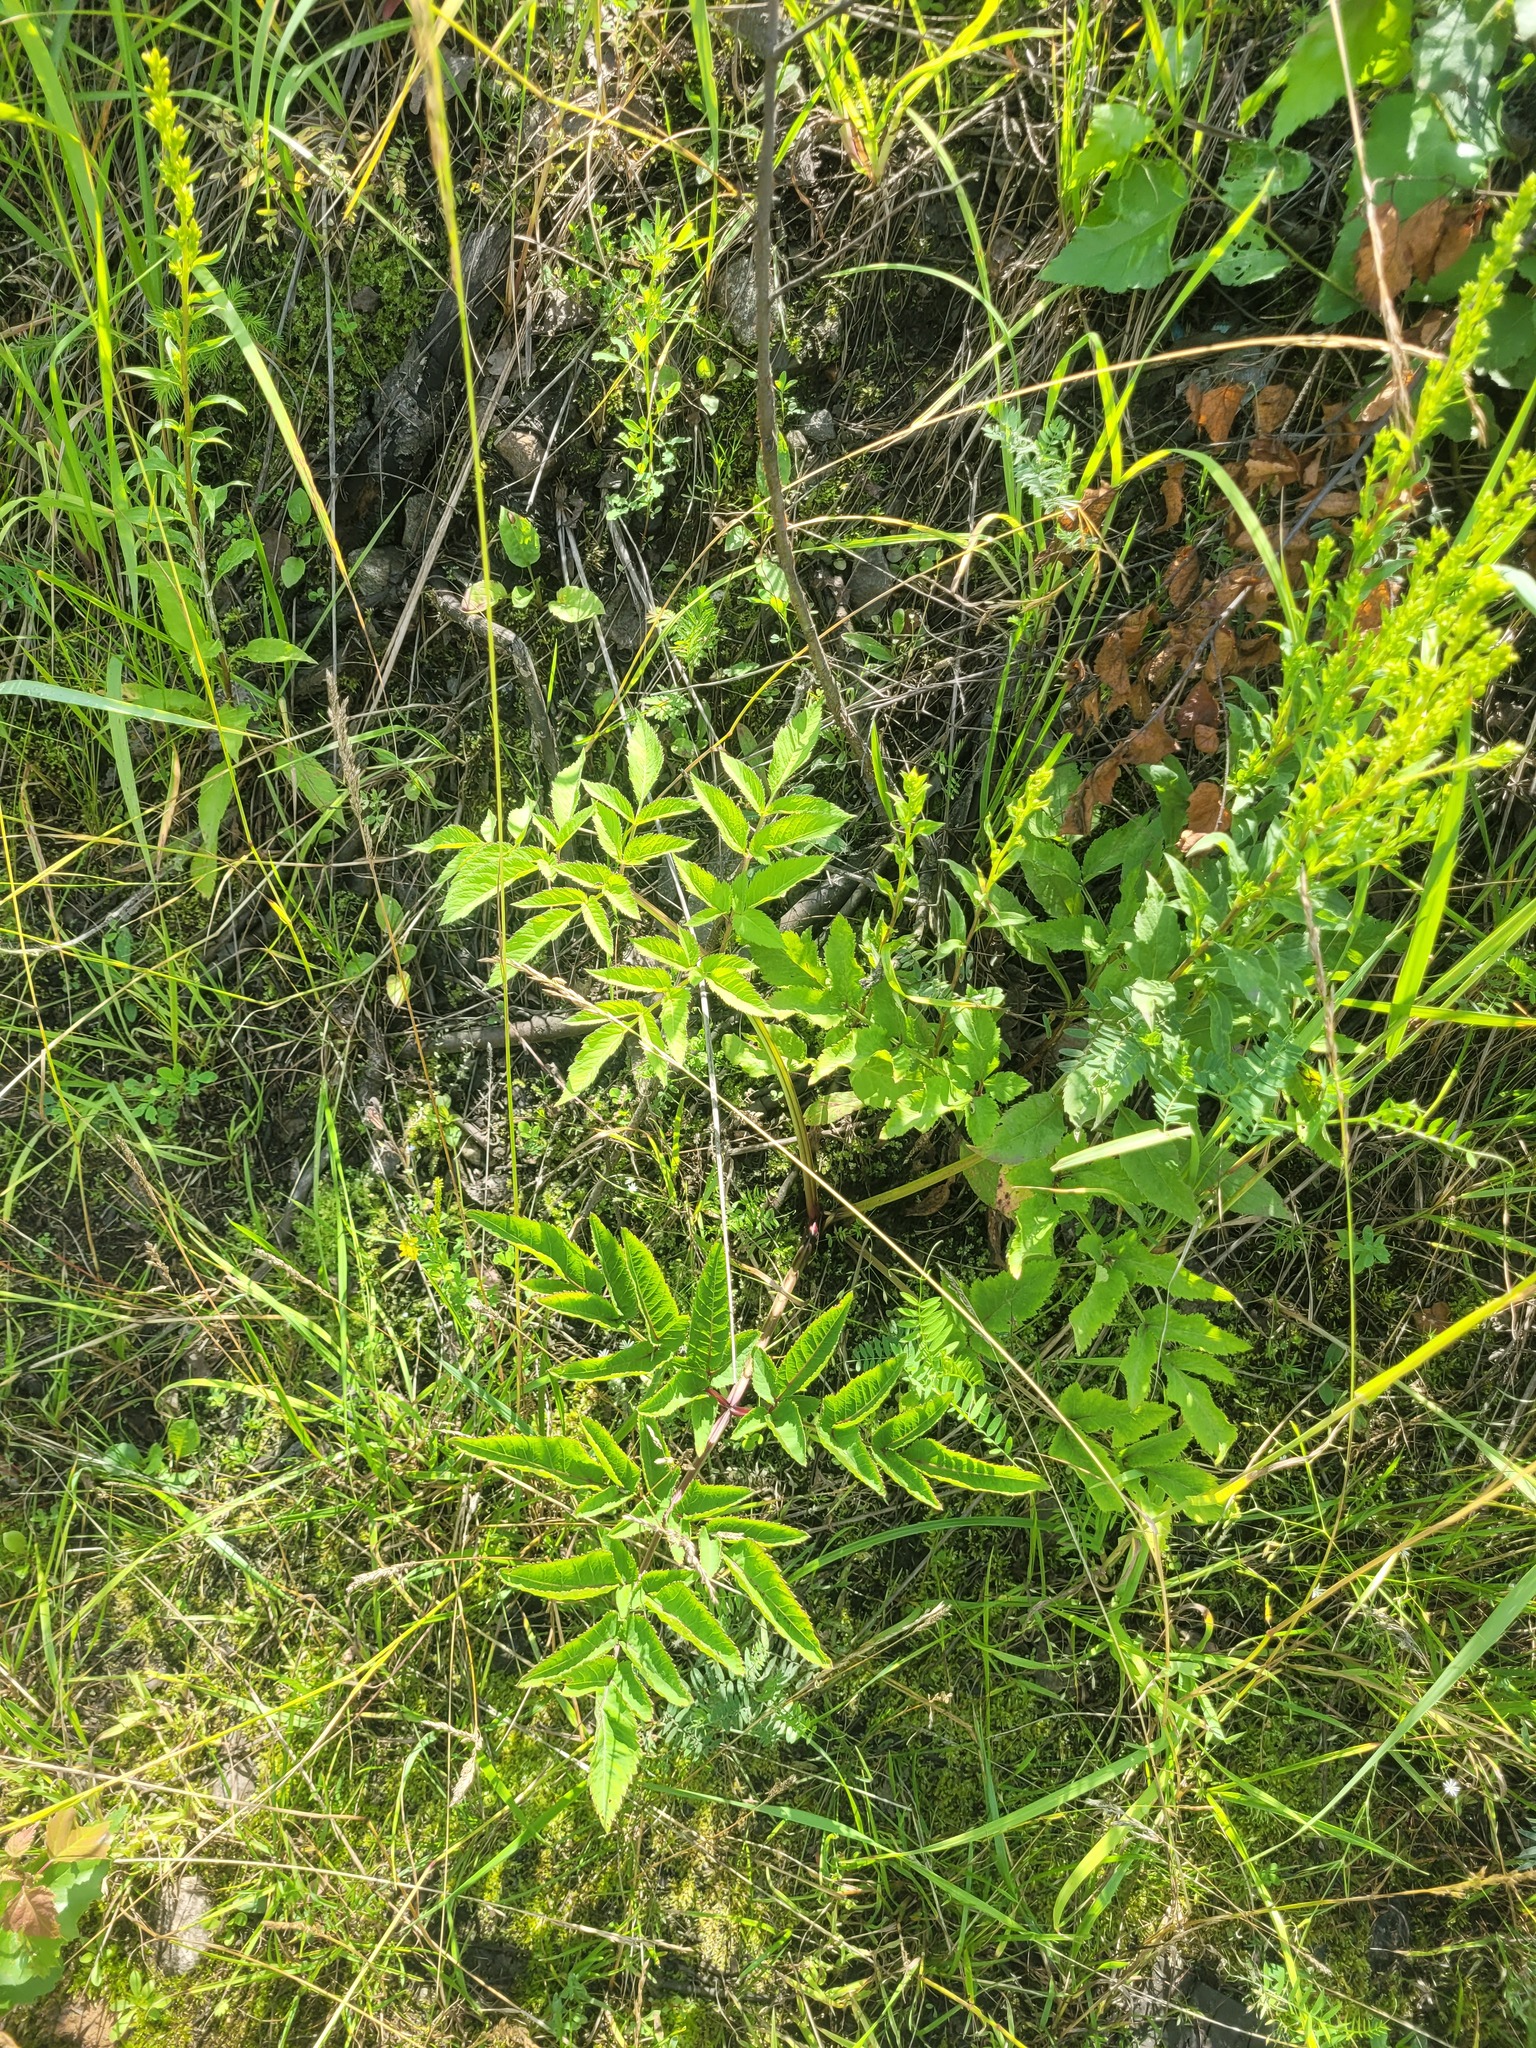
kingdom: Plantae
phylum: Tracheophyta
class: Magnoliopsida
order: Apiales
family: Apiaceae
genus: Angelica
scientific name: Angelica sylvestris
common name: Wild angelica
